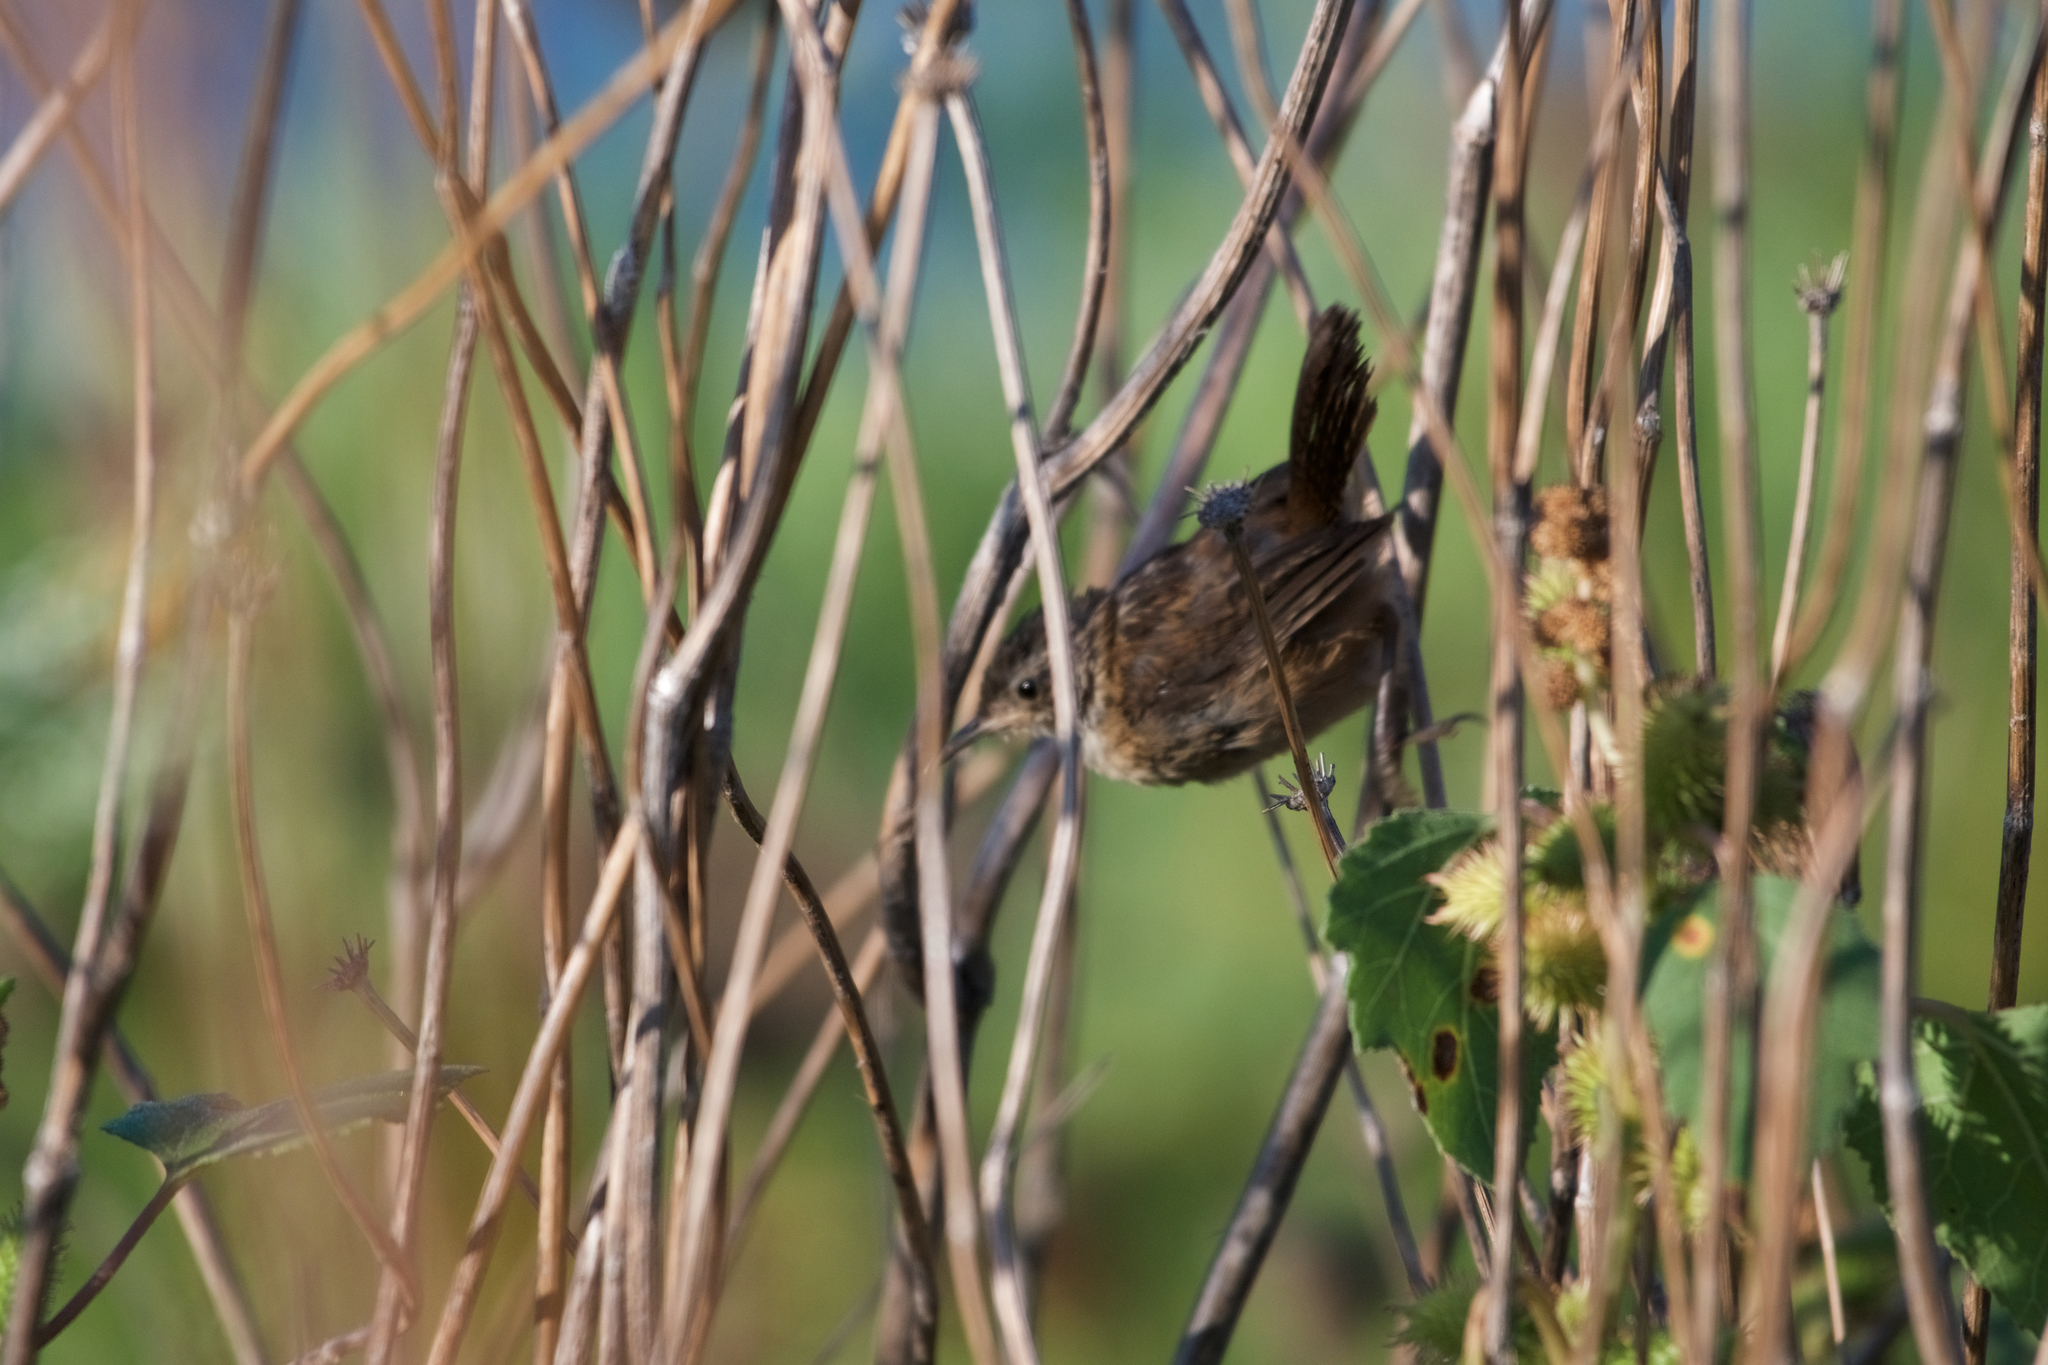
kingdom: Animalia
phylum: Chordata
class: Aves
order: Passeriformes
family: Troglodytidae
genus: Cistothorus
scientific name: Cistothorus palustris
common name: Marsh wren
